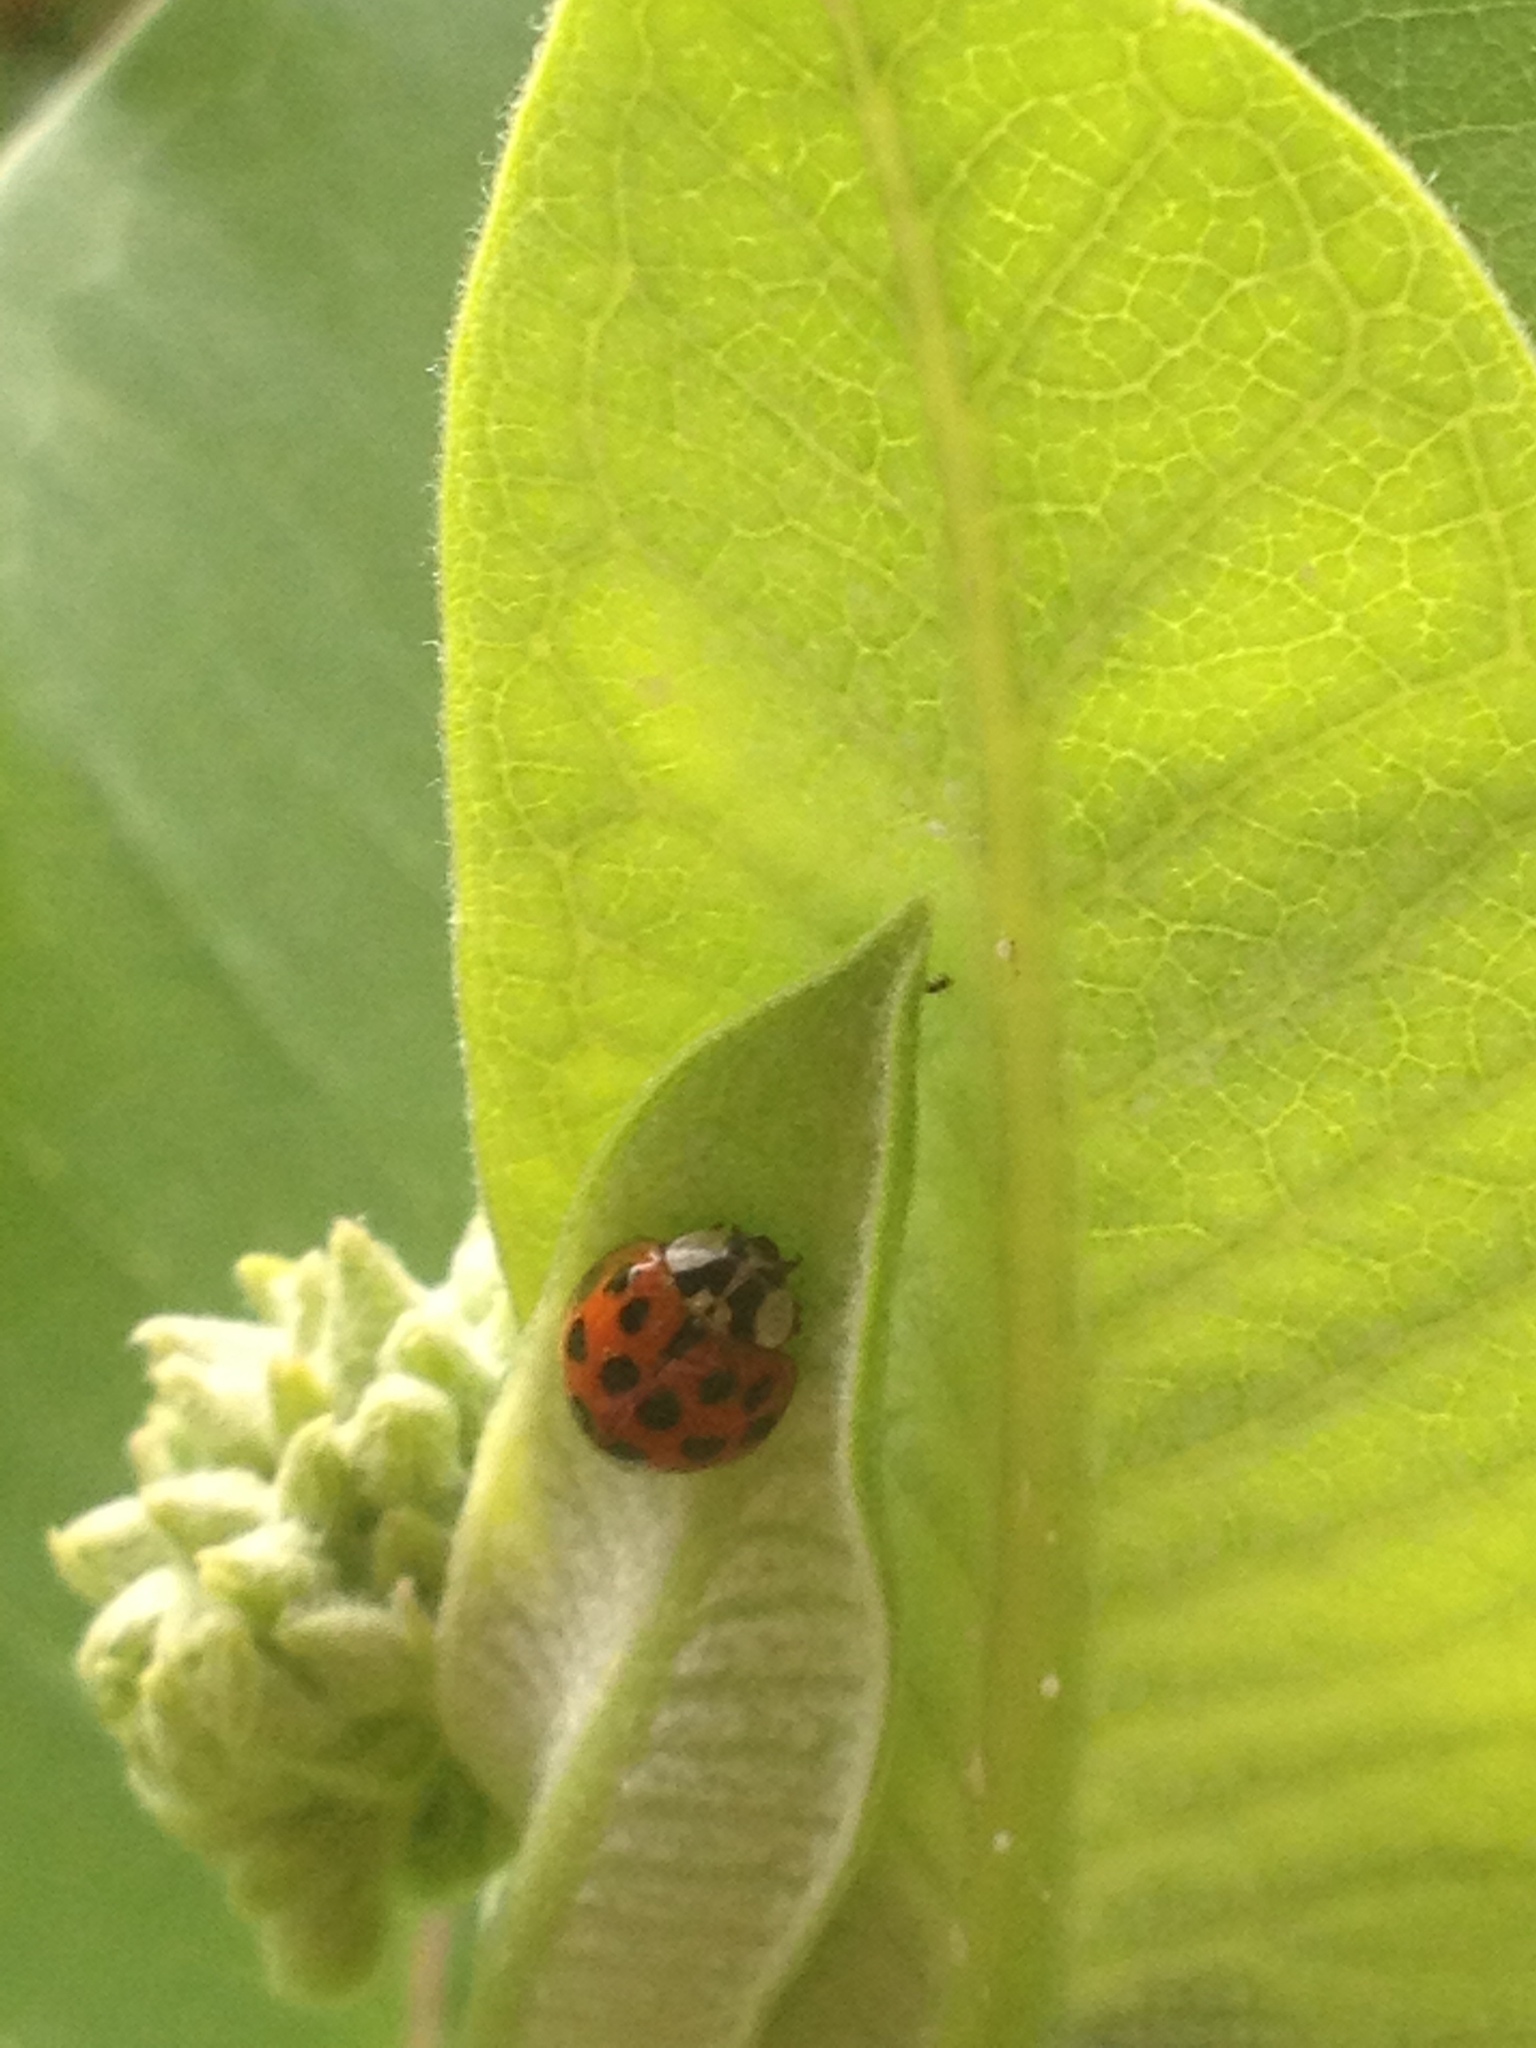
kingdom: Animalia
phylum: Arthropoda
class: Insecta
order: Coleoptera
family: Coccinellidae
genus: Harmonia
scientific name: Harmonia axyridis
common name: Harlequin ladybird
